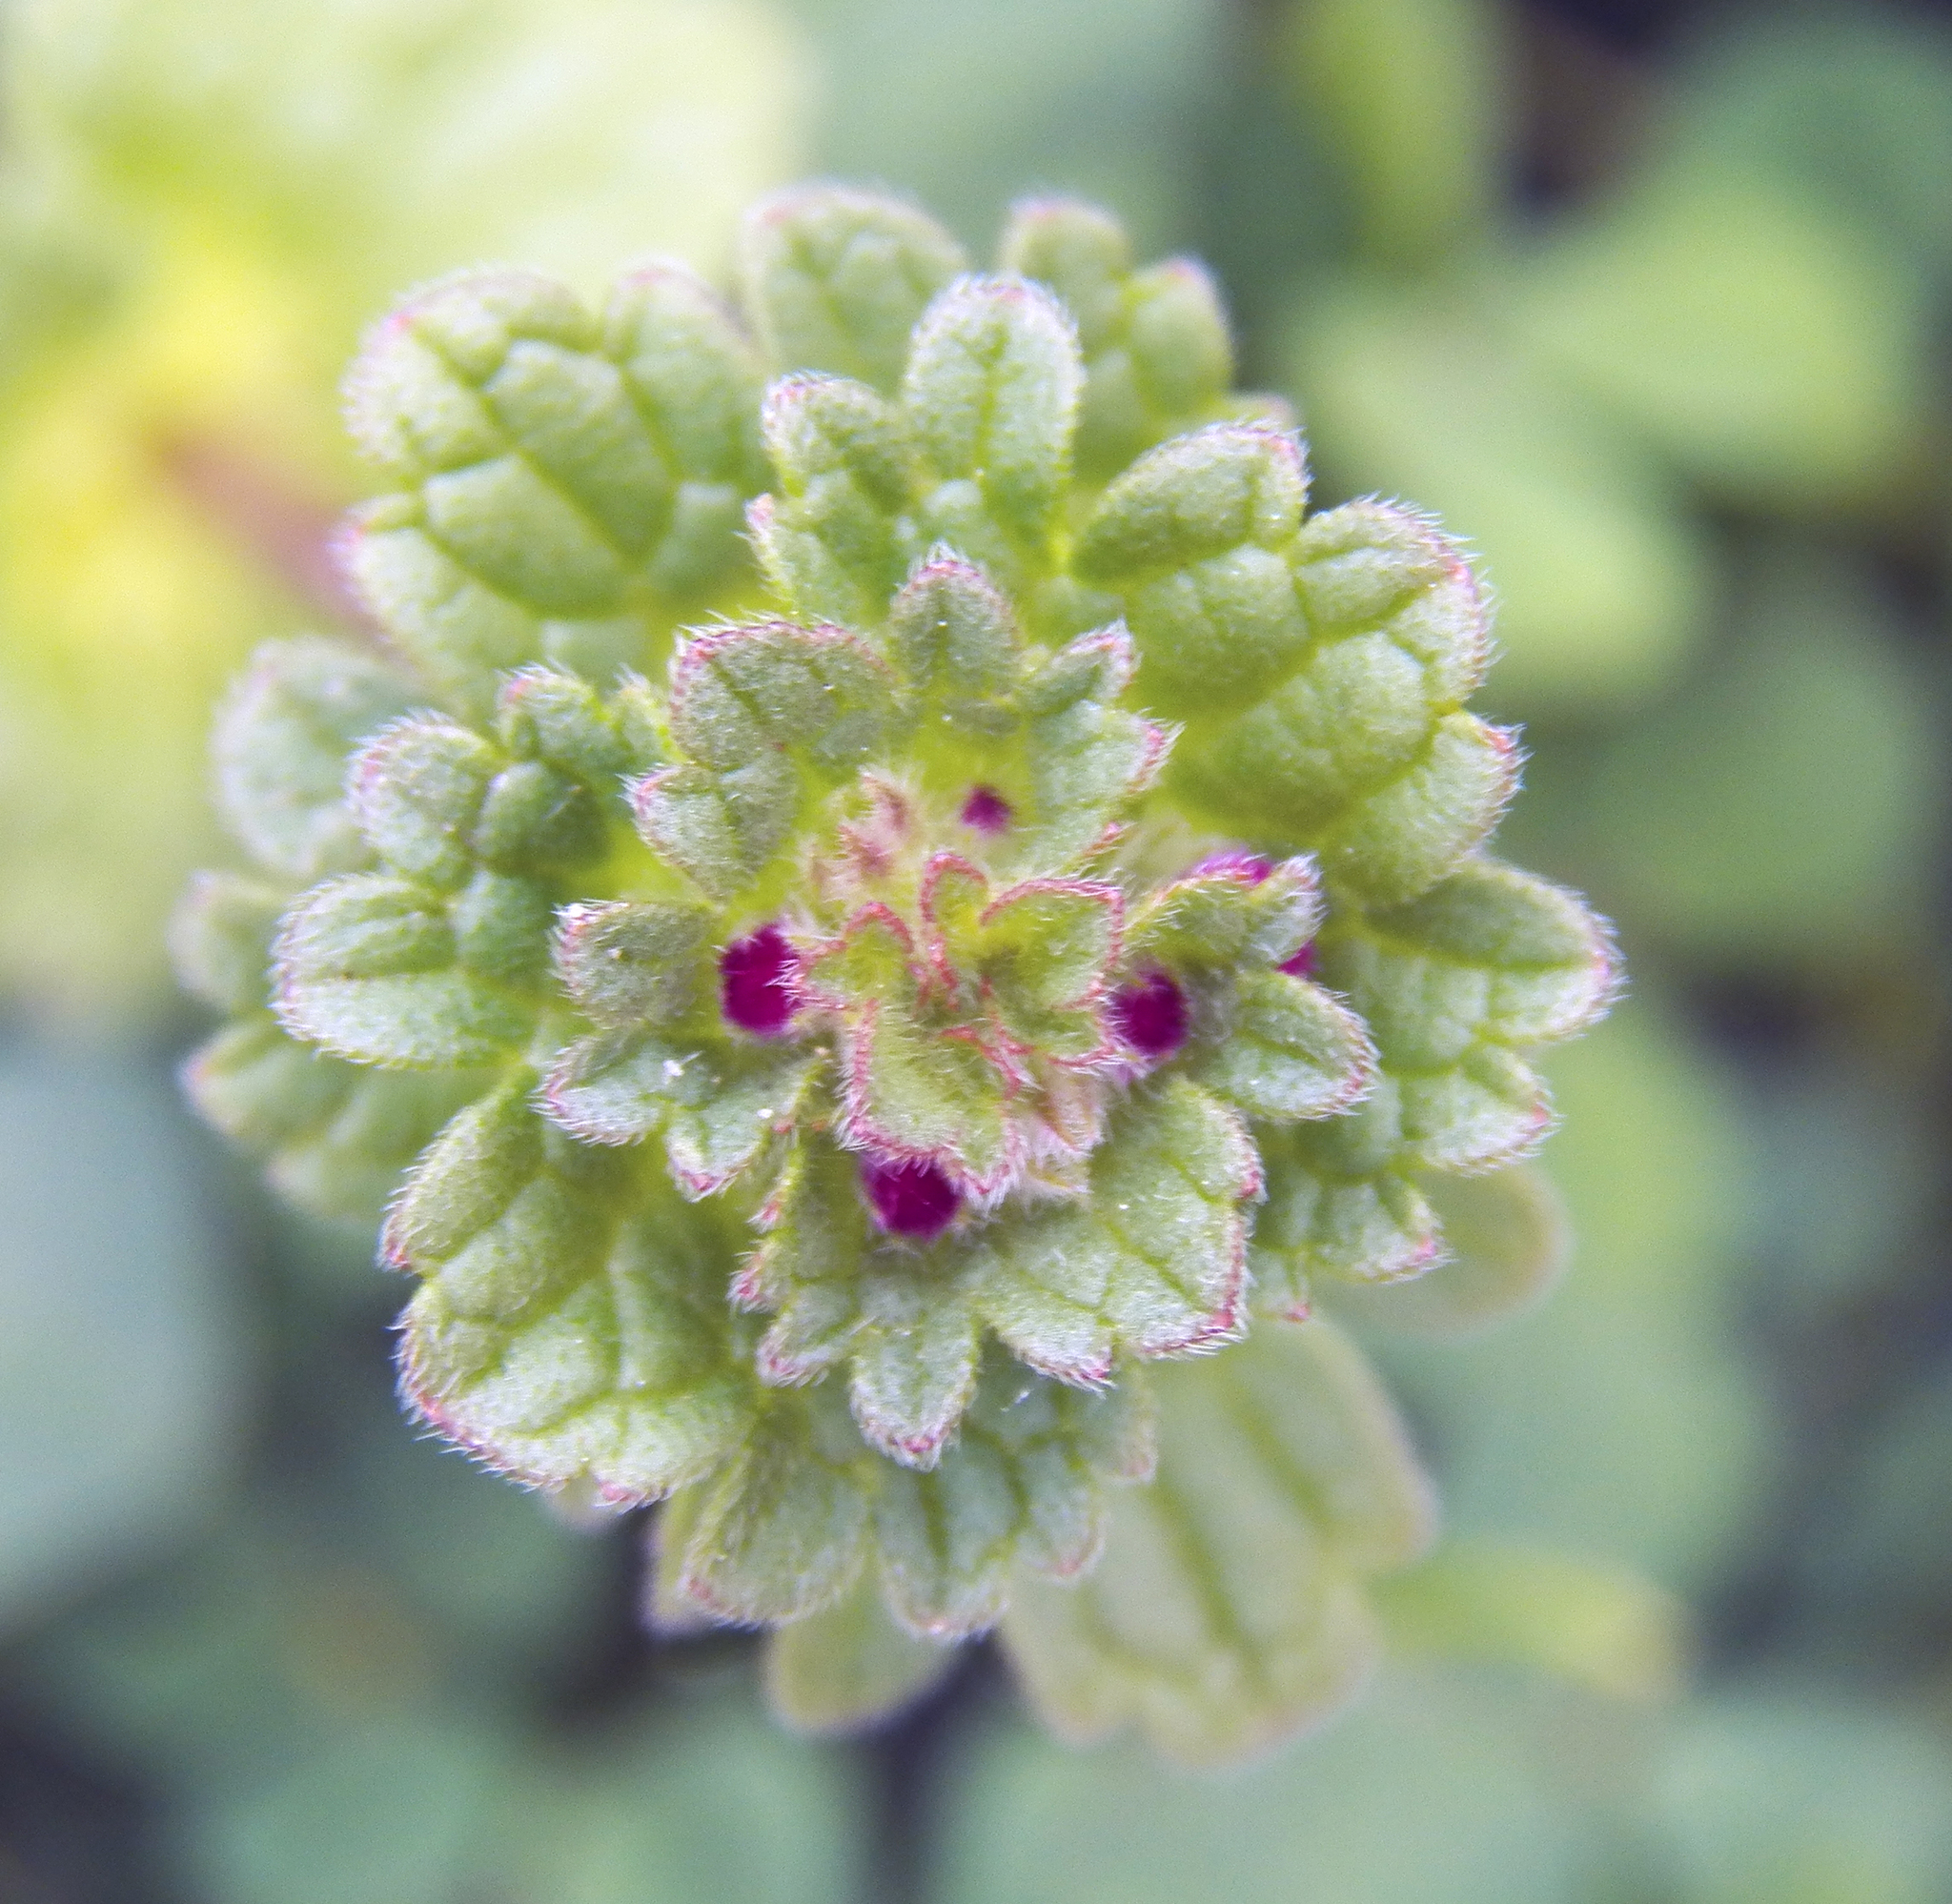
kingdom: Plantae
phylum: Tracheophyta
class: Magnoliopsida
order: Lamiales
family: Lamiaceae
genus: Lamium
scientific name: Lamium amplexicaule
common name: Henbit dead-nettle
